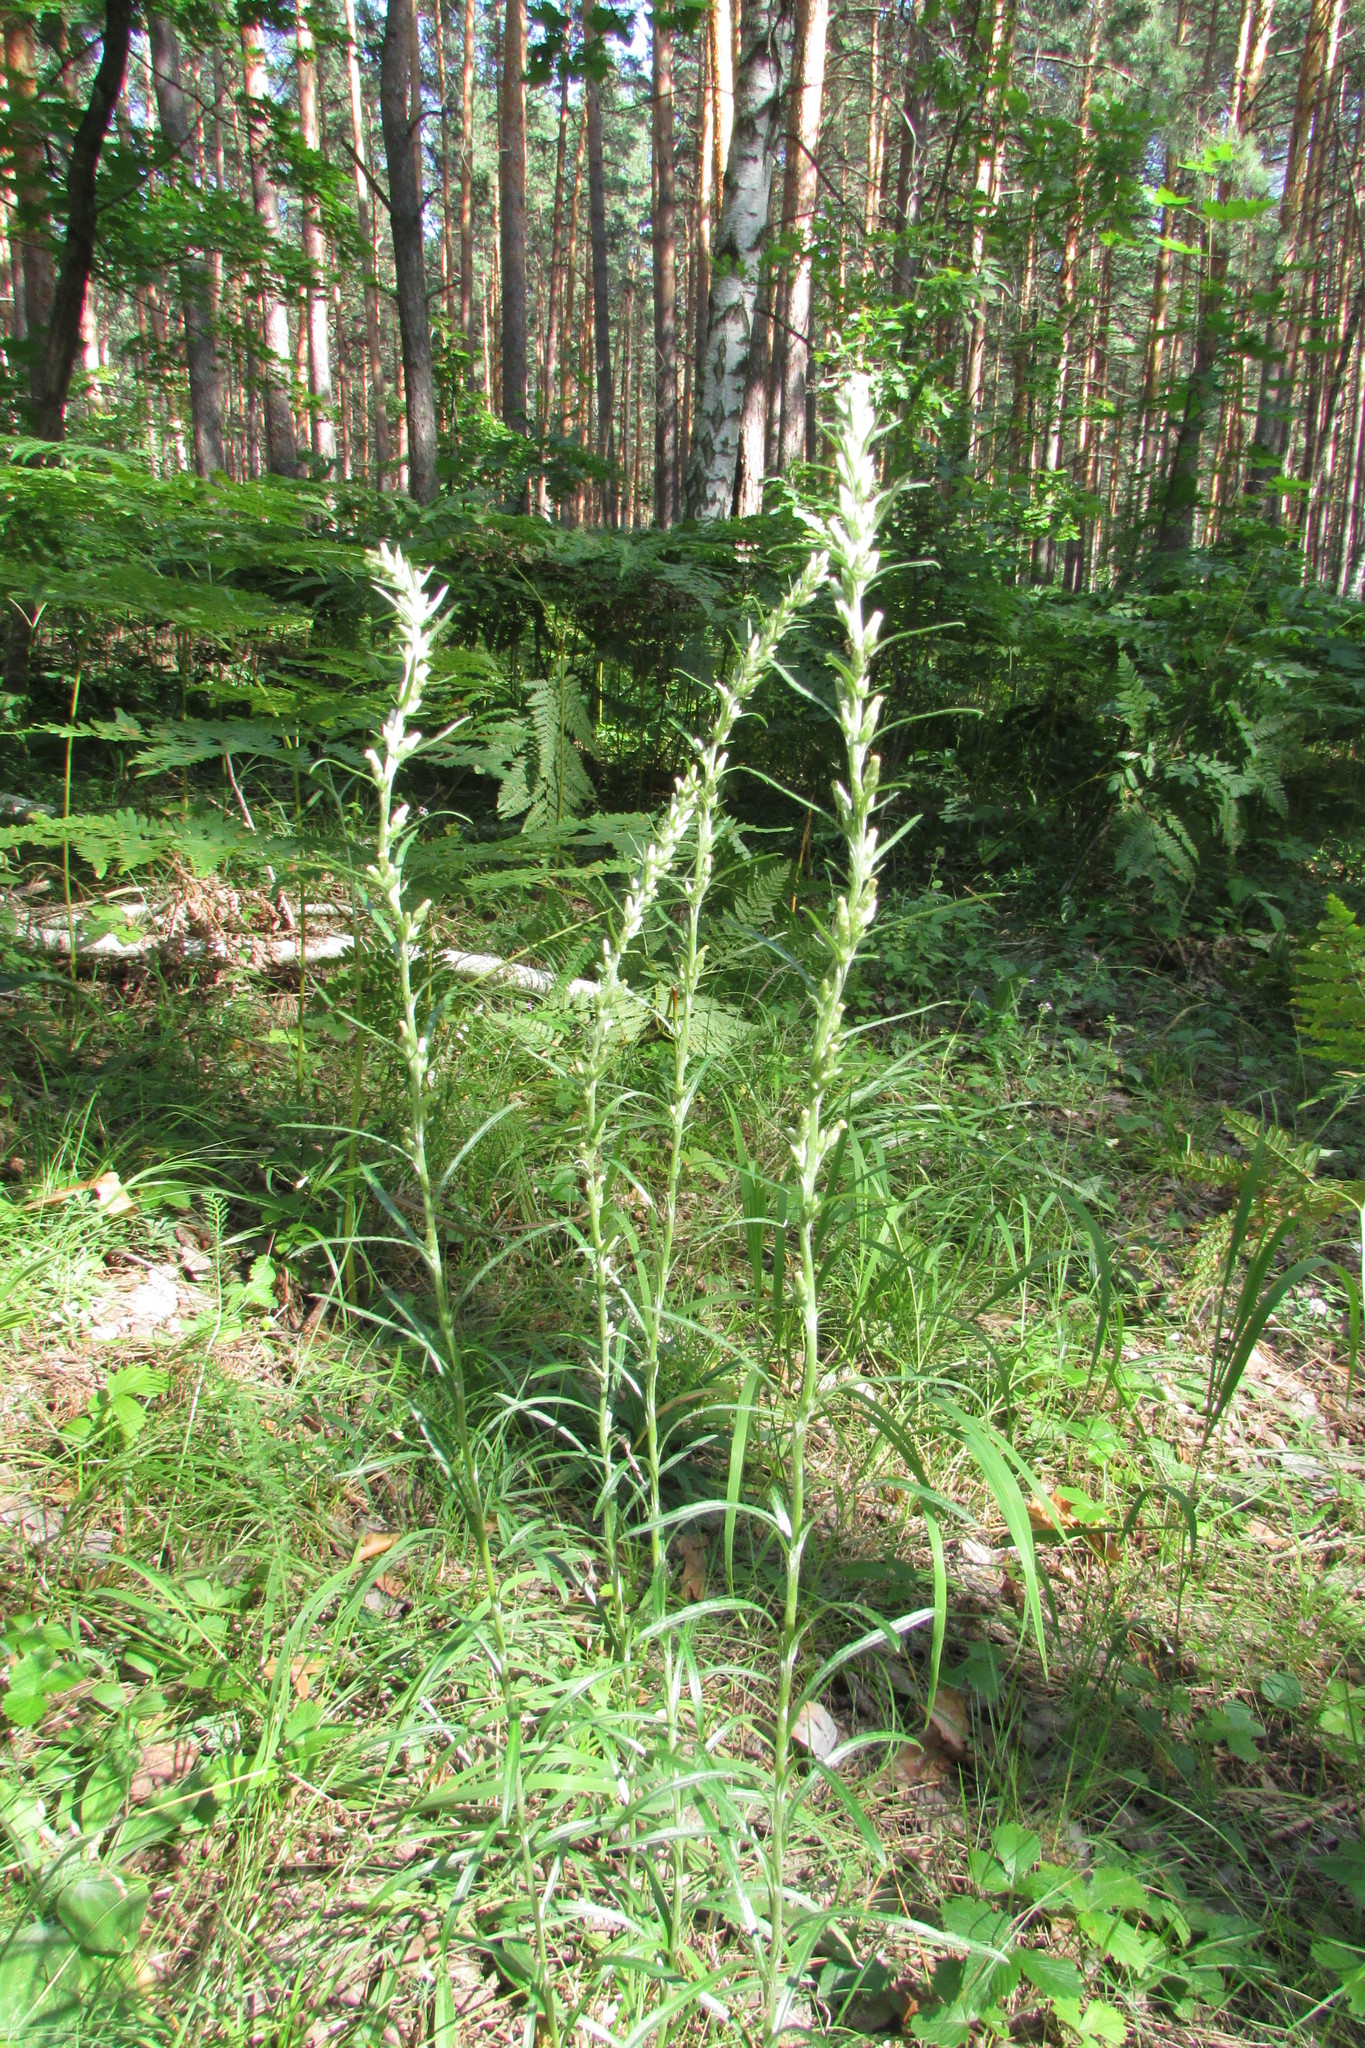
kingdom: Plantae
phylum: Tracheophyta
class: Magnoliopsida
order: Asterales
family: Asteraceae
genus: Omalotheca
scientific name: Omalotheca sylvatica
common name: Heath cudweed
